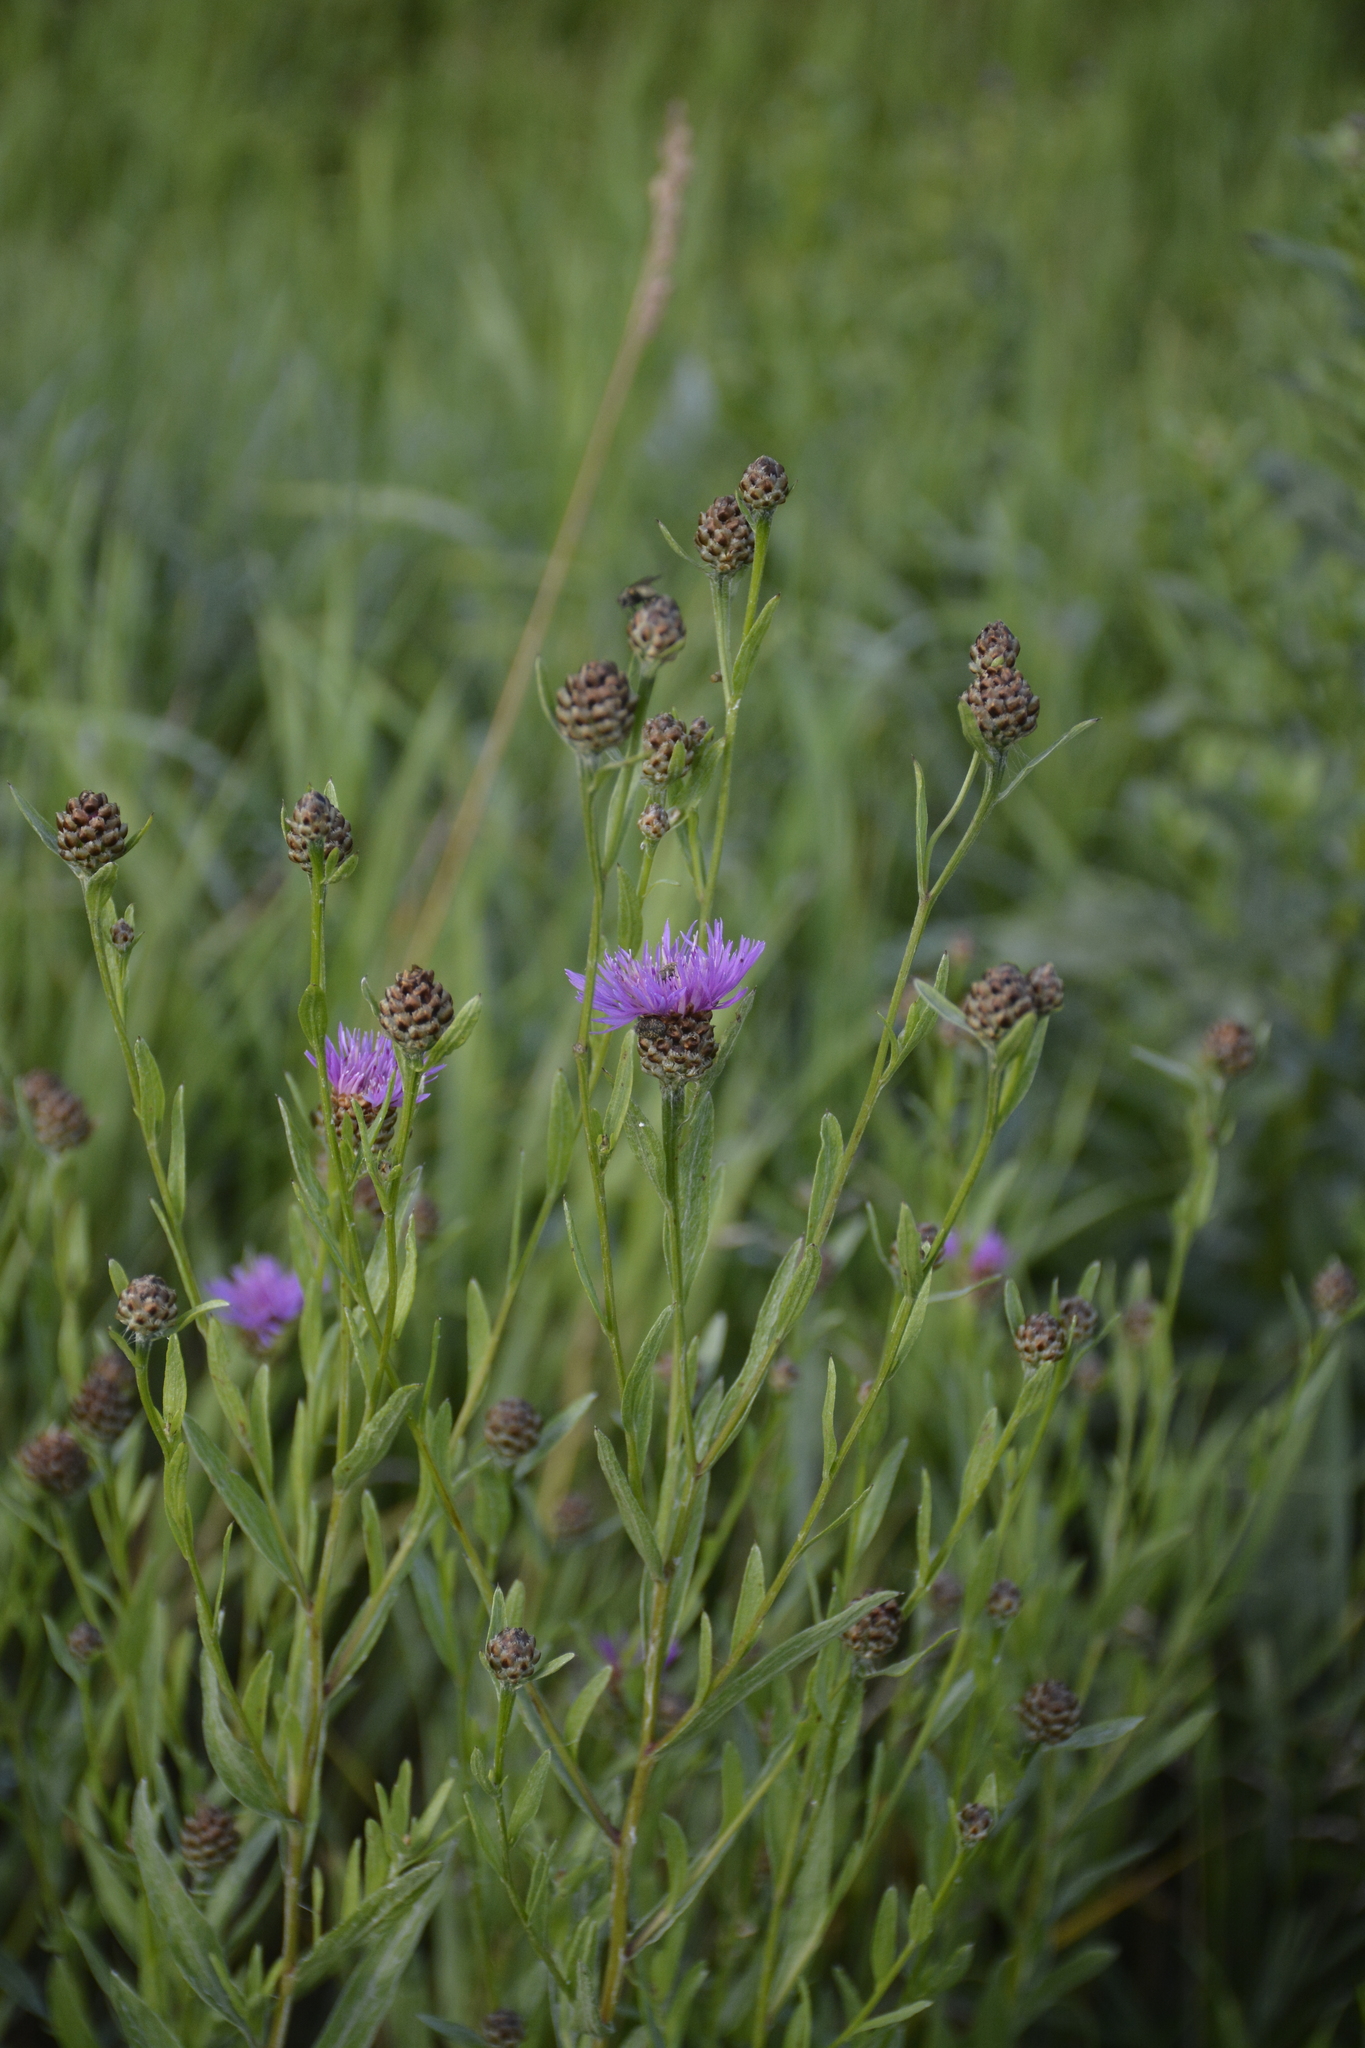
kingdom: Plantae
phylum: Tracheophyta
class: Magnoliopsida
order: Asterales
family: Asteraceae
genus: Centaurea
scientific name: Centaurea jacea
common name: Brown knapweed
